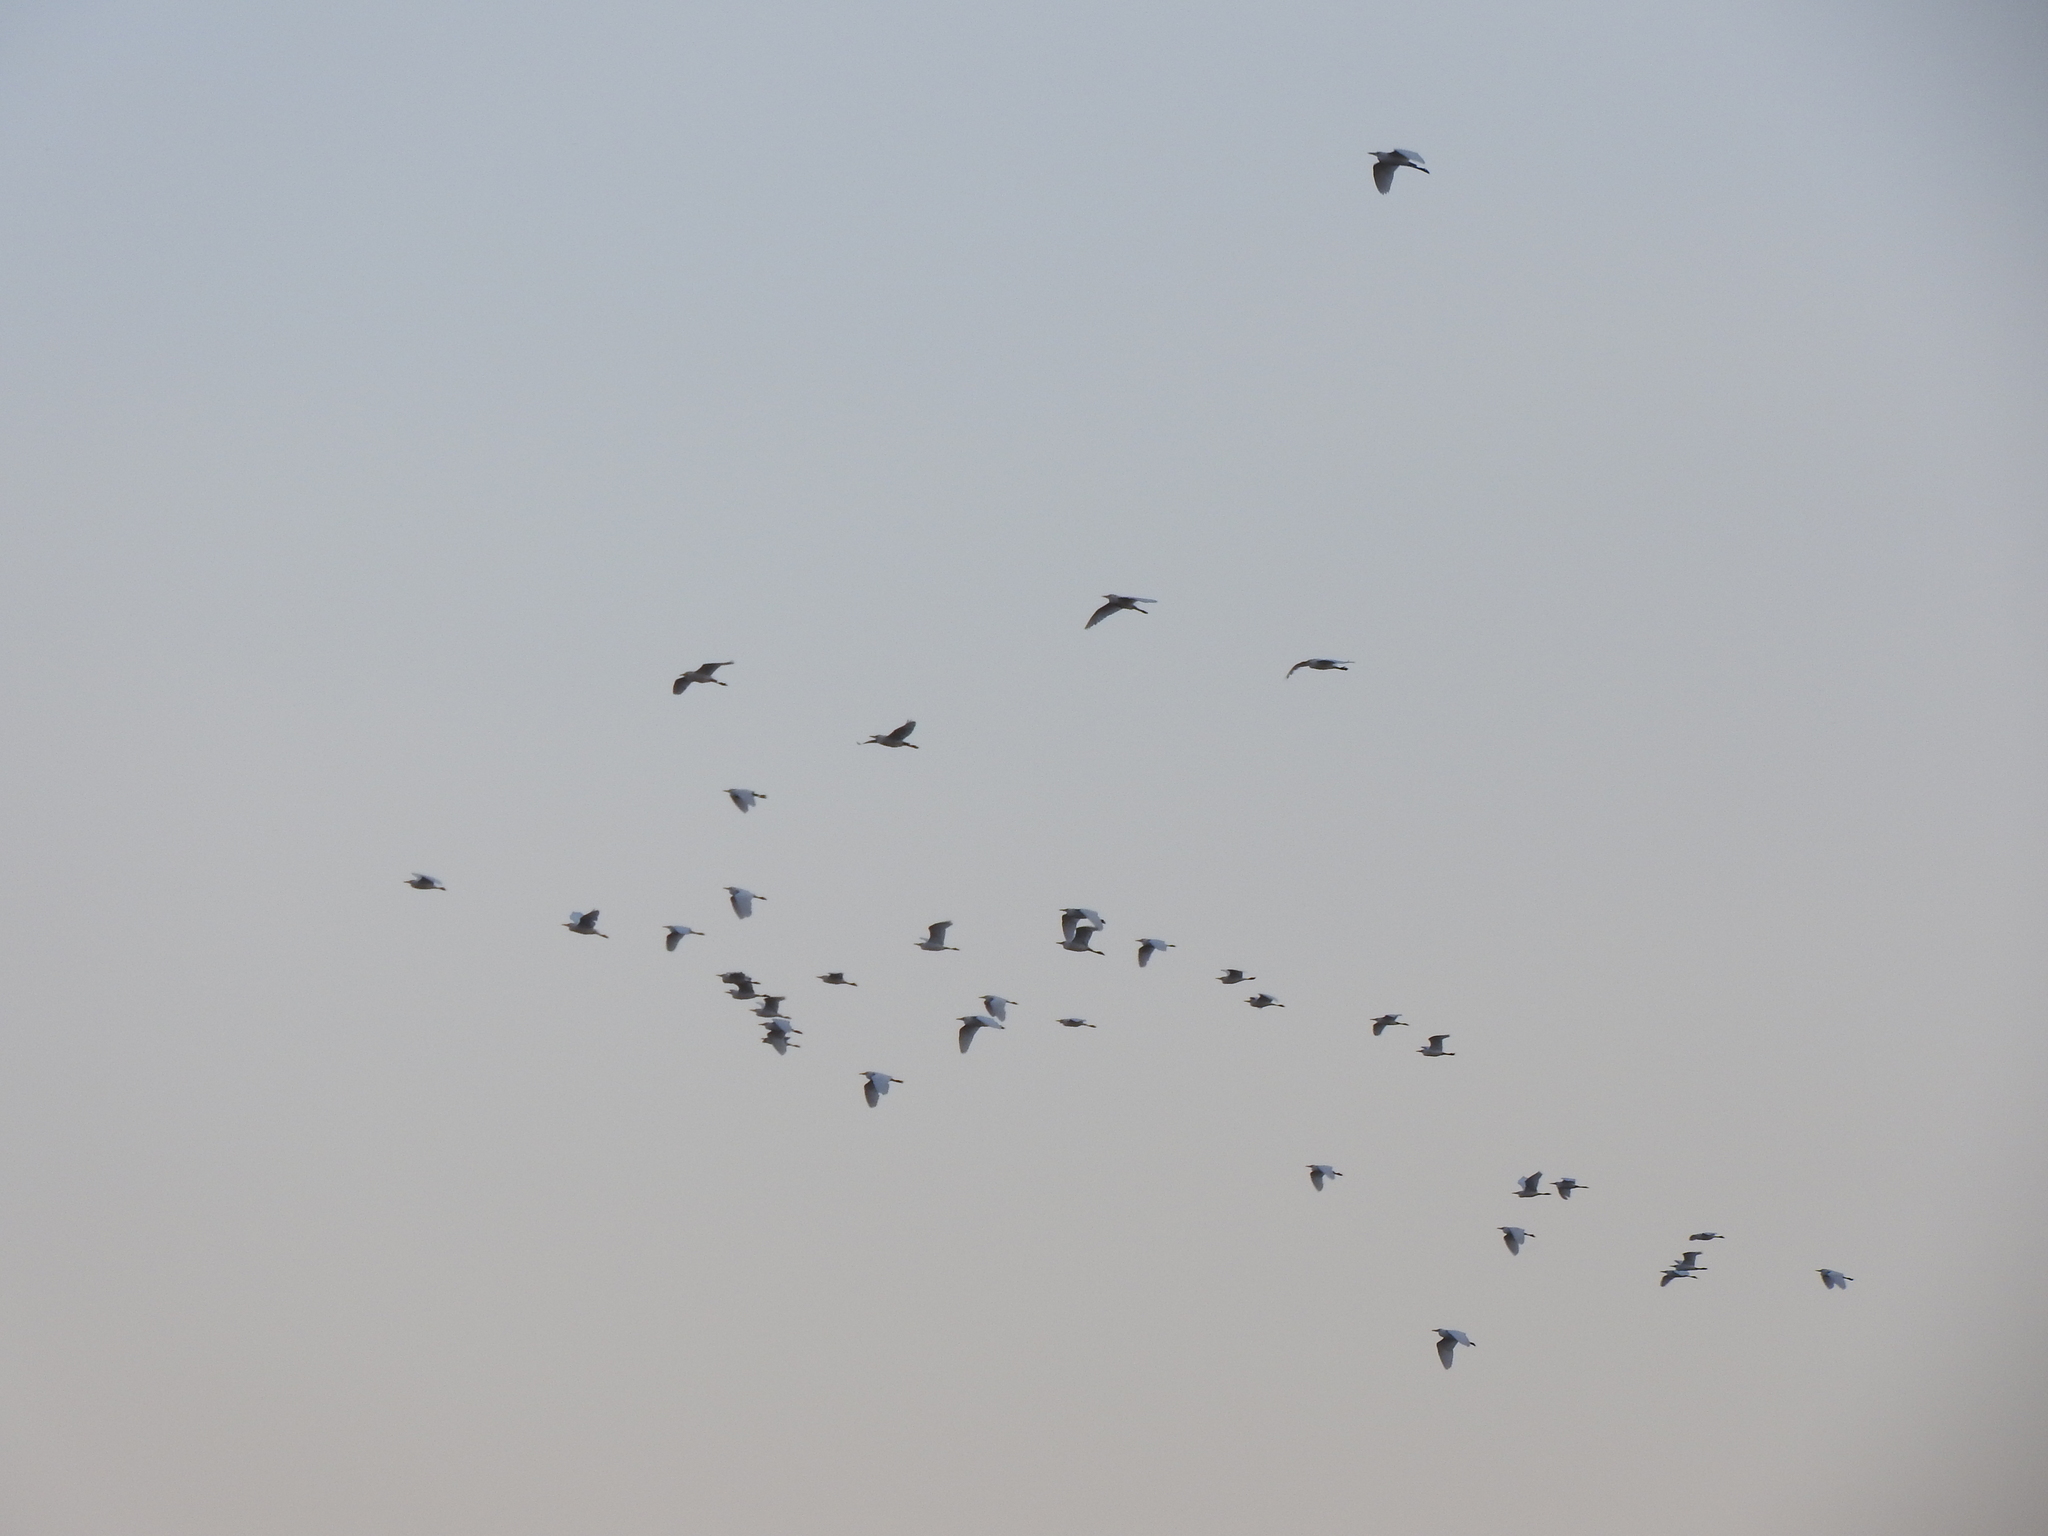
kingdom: Animalia
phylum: Chordata
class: Aves
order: Pelecaniformes
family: Ardeidae
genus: Bubulcus
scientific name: Bubulcus ibis
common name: Cattle egret
